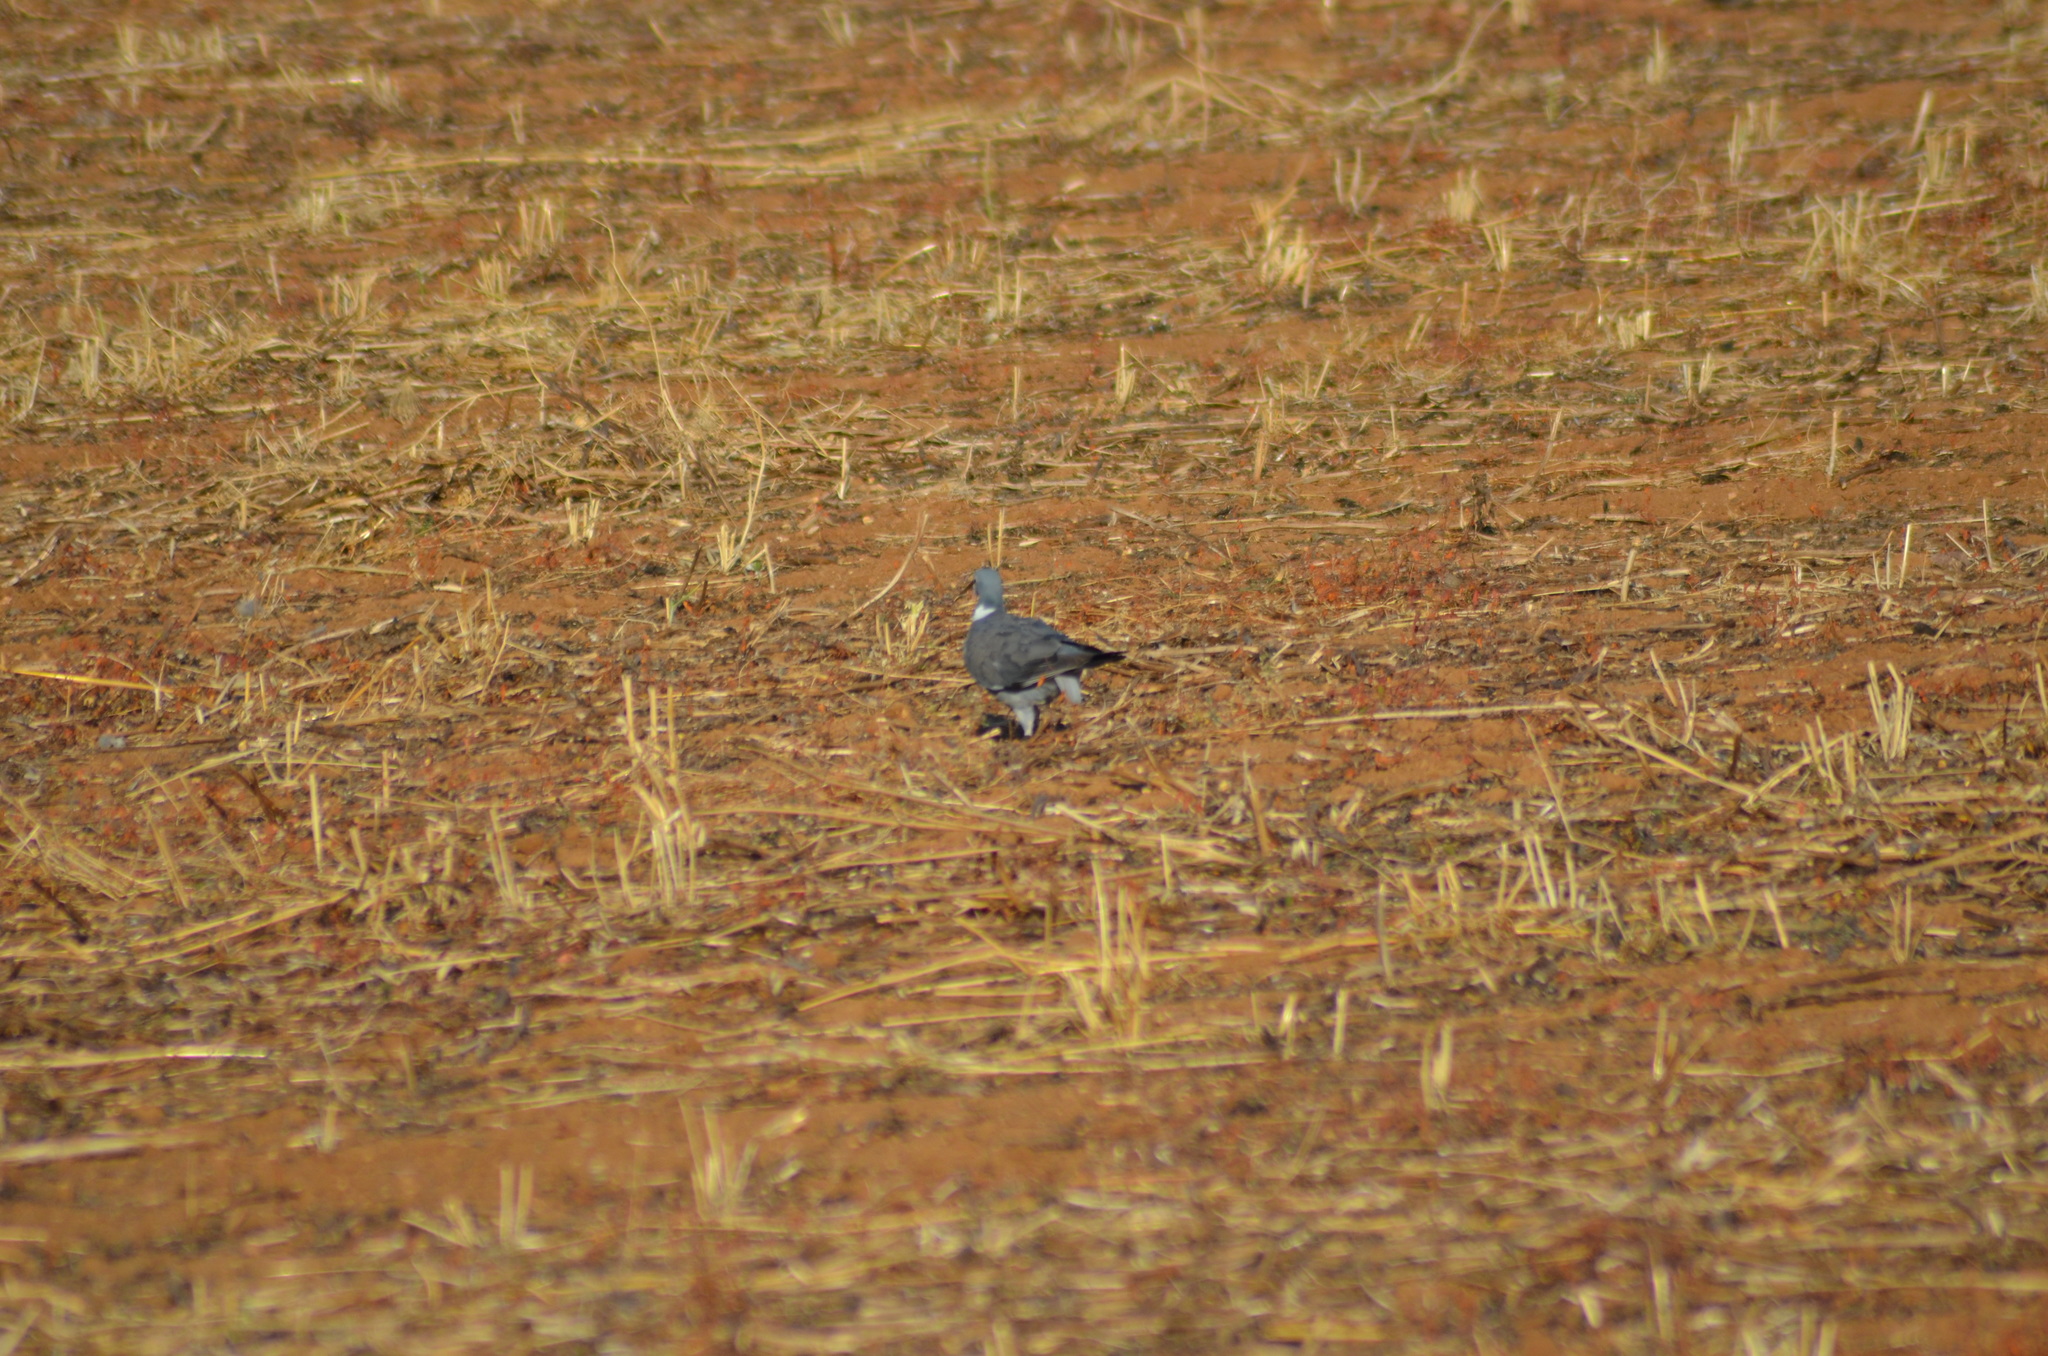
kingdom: Animalia
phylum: Chordata
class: Aves
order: Columbiformes
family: Columbidae
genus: Columba
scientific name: Columba palumbus
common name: Common wood pigeon
